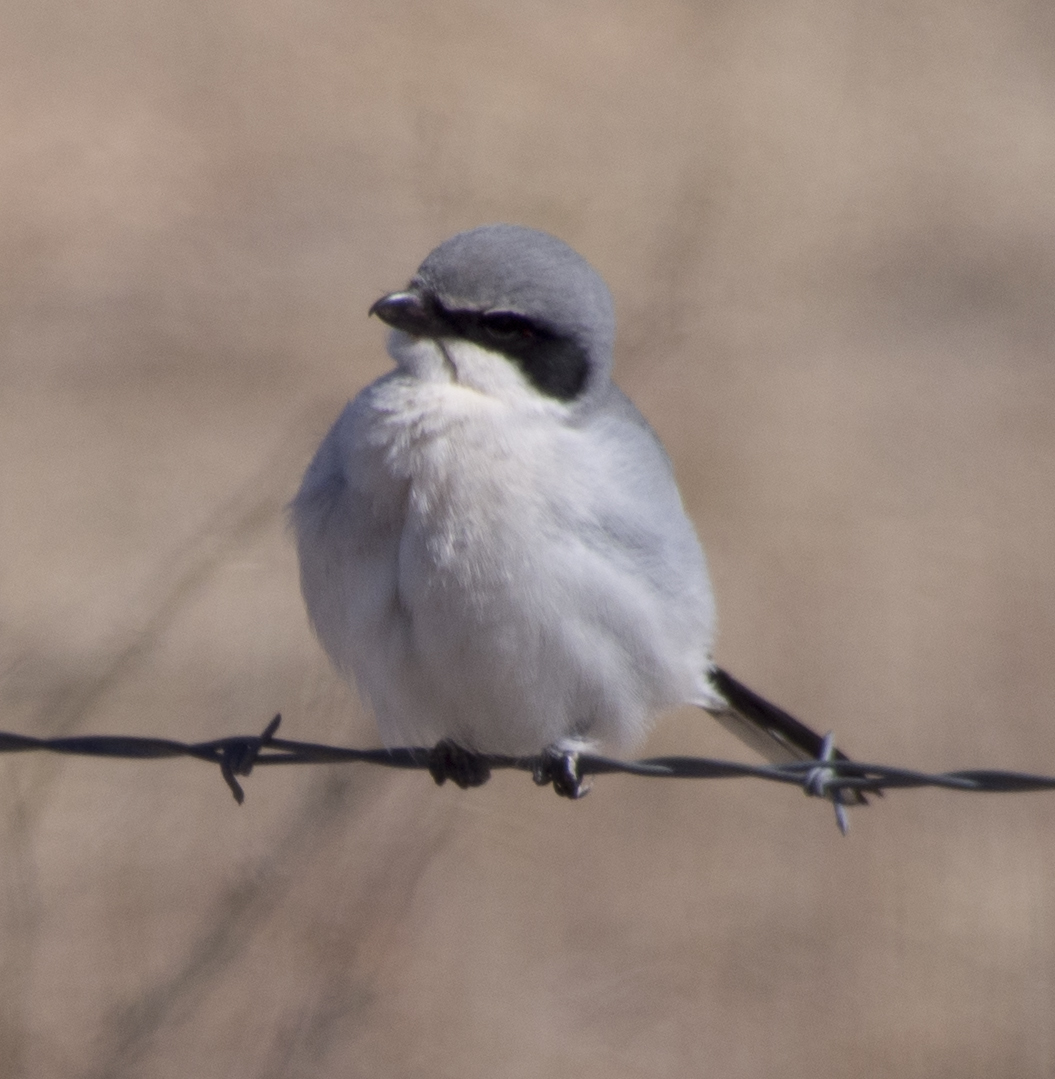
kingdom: Animalia
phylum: Chordata
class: Aves
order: Passeriformes
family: Laniidae
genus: Lanius
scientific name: Lanius ludovicianus
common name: Loggerhead shrike
